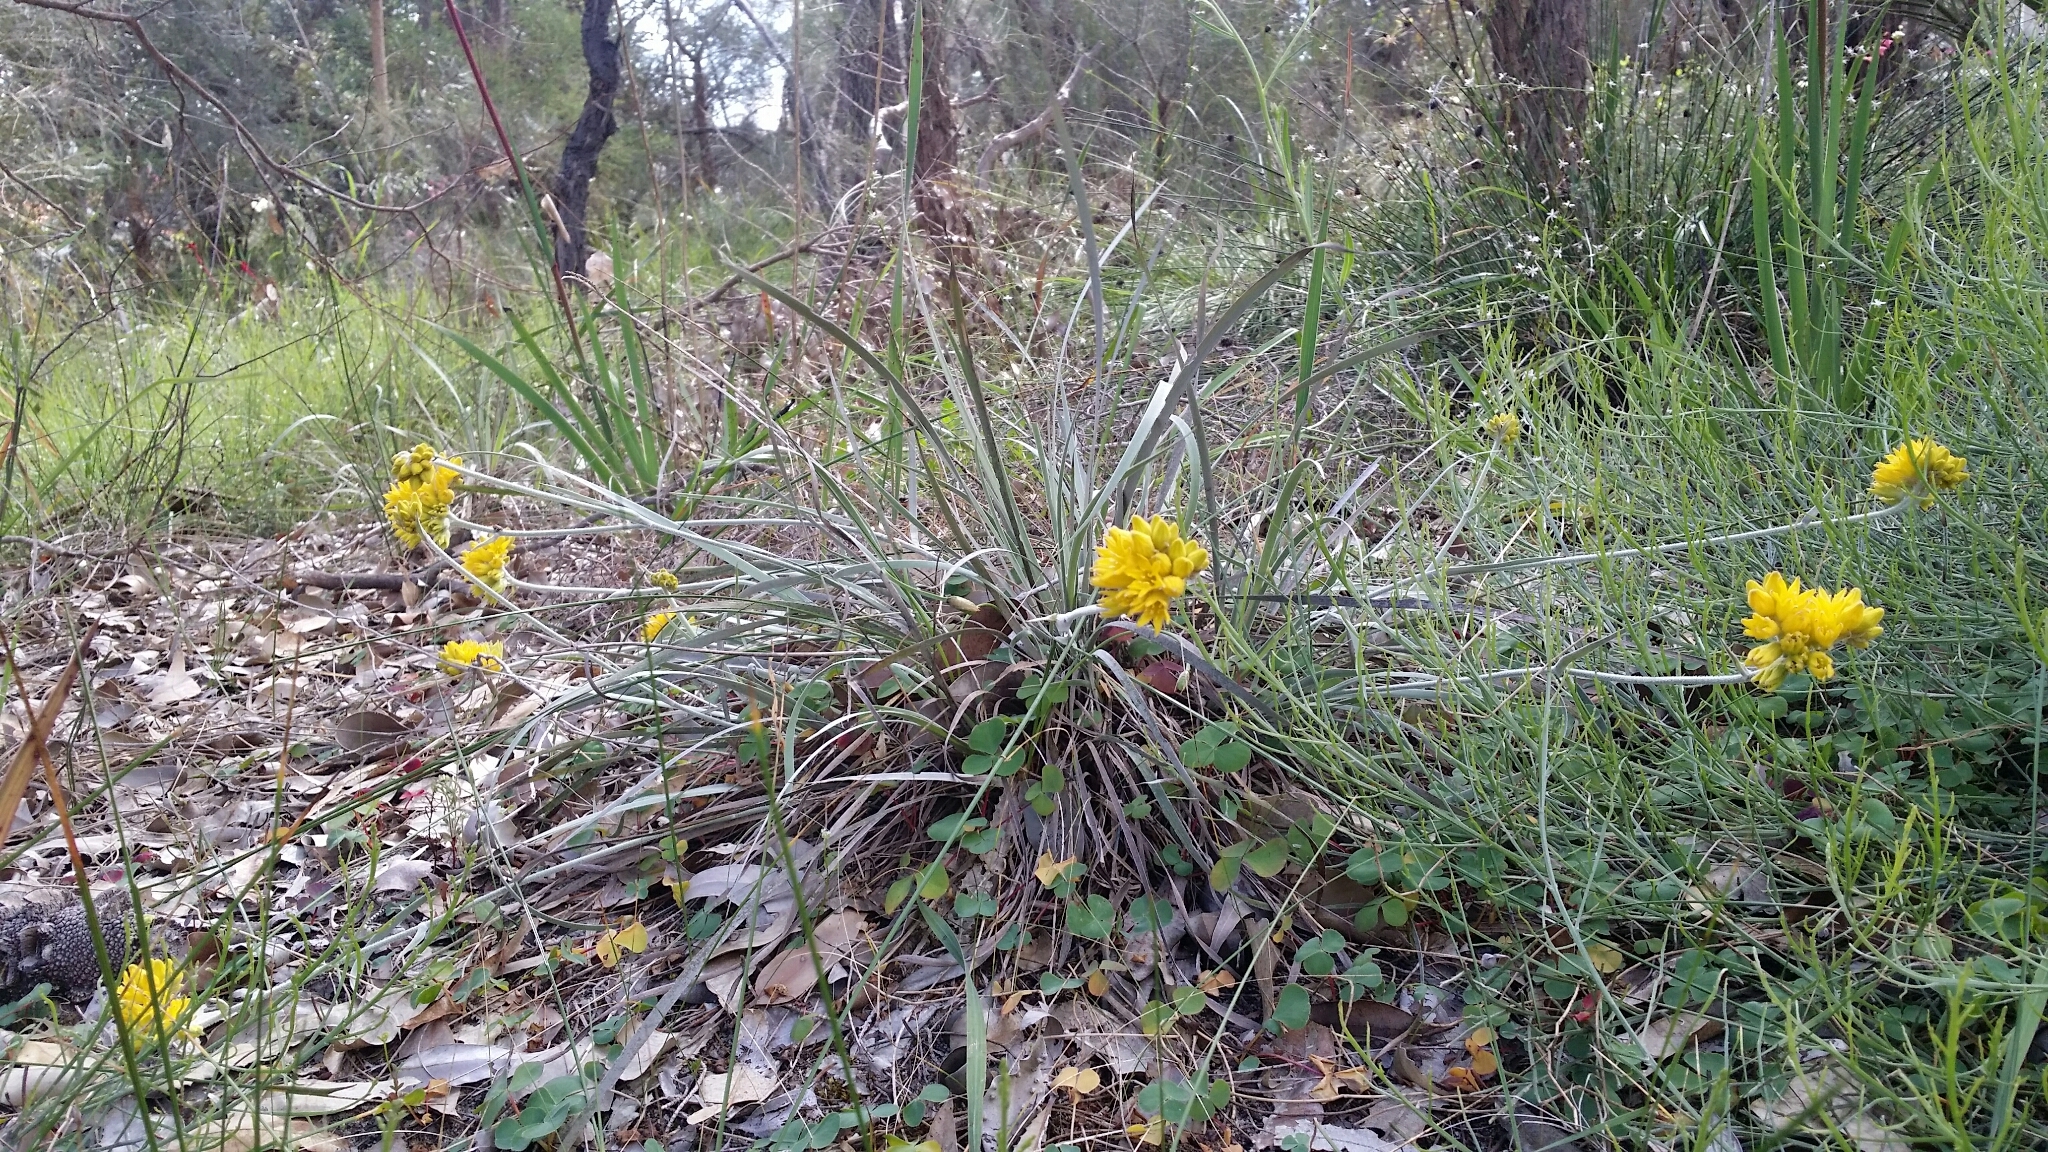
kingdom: Plantae
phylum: Tracheophyta
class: Liliopsida
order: Commelinales
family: Haemodoraceae
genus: Conostylis
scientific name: Conostylis candicans
